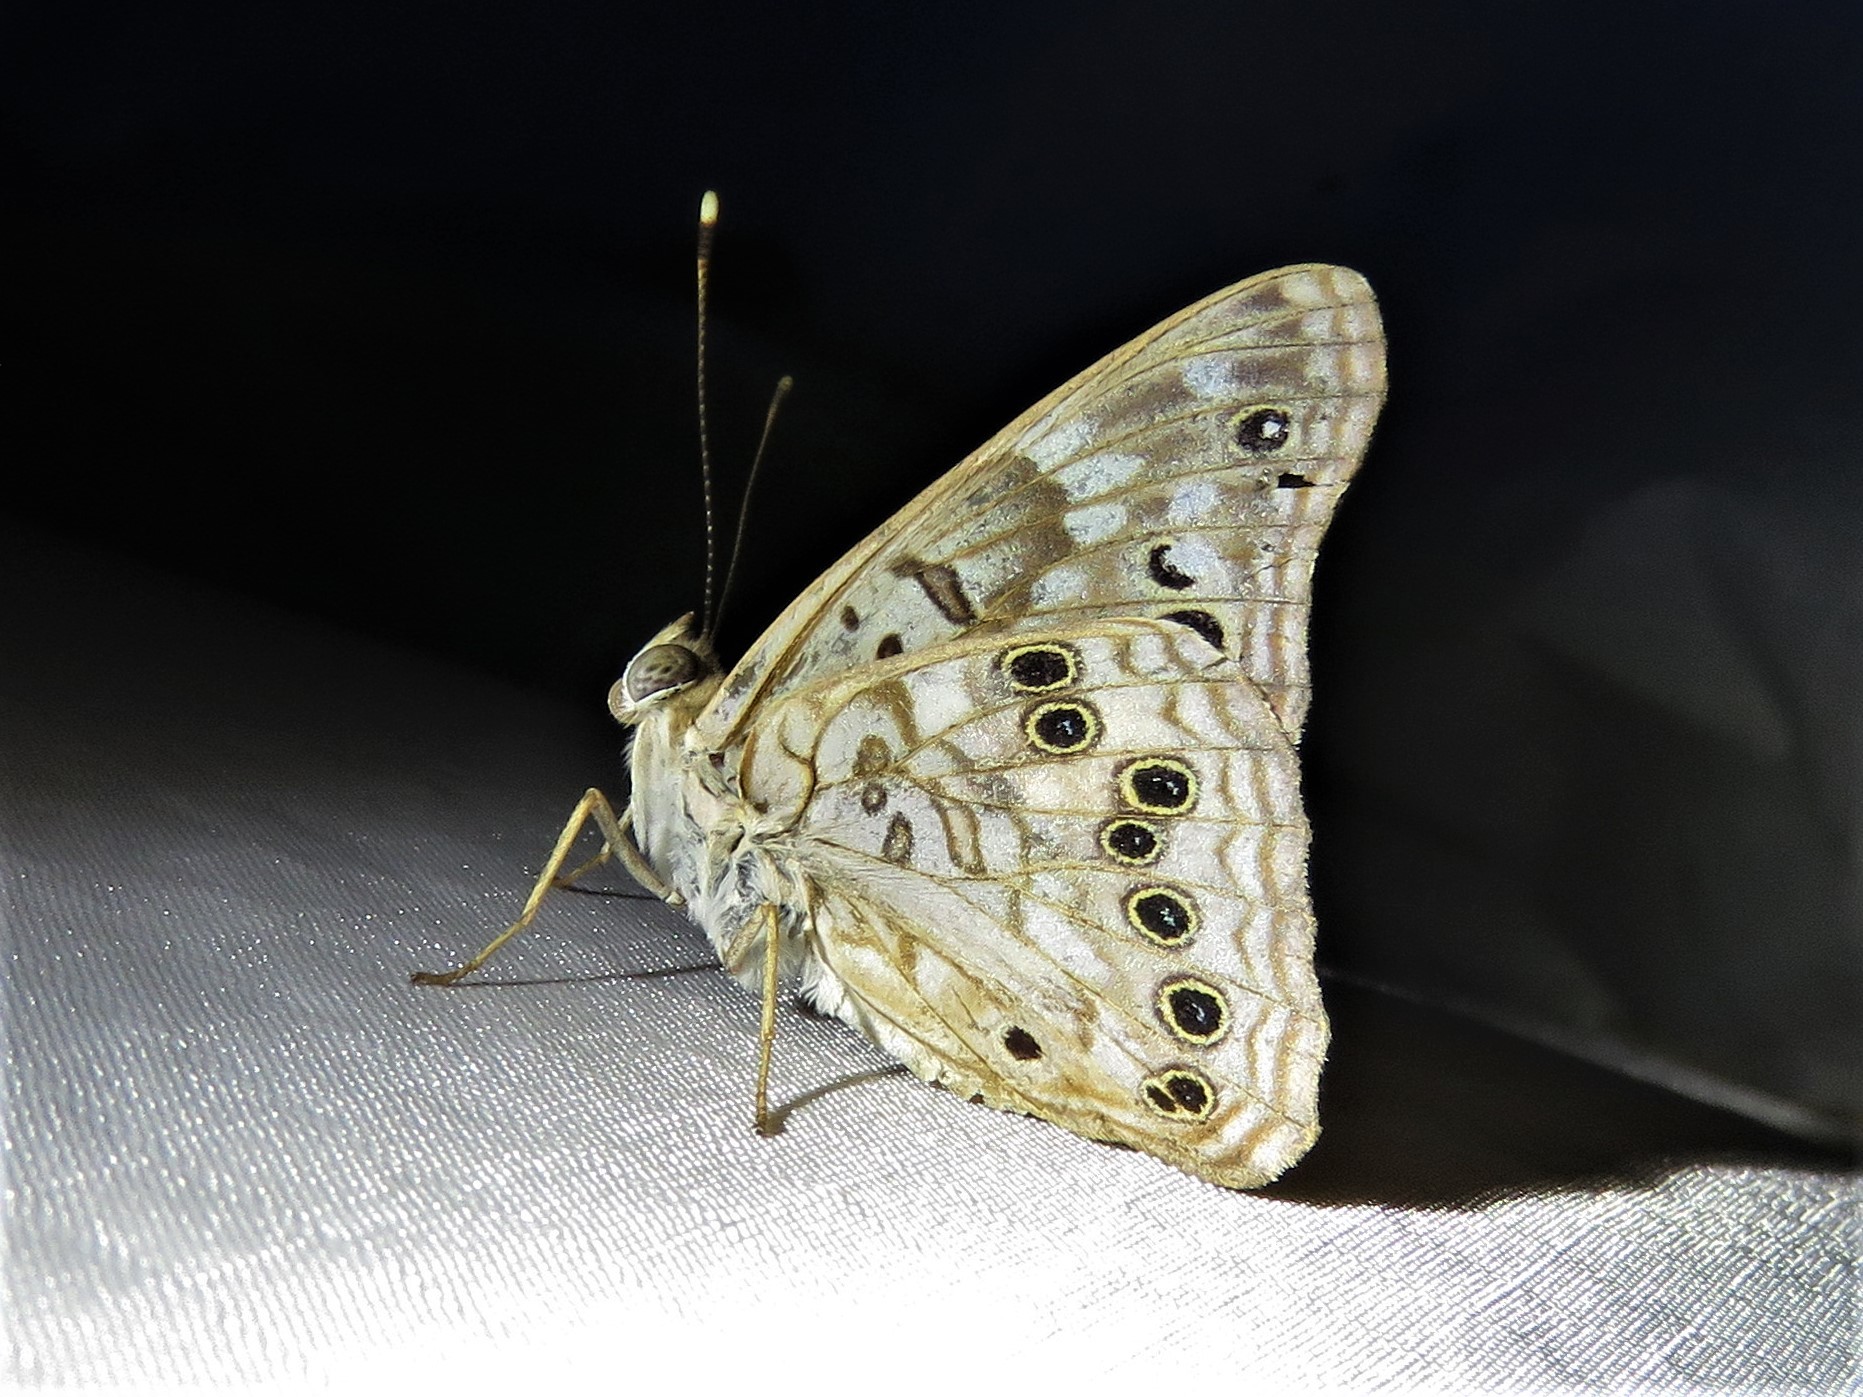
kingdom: Animalia
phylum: Arthropoda
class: Insecta
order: Lepidoptera
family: Nymphalidae
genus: Asterocampa
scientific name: Asterocampa celtis
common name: Hackberry emperor
